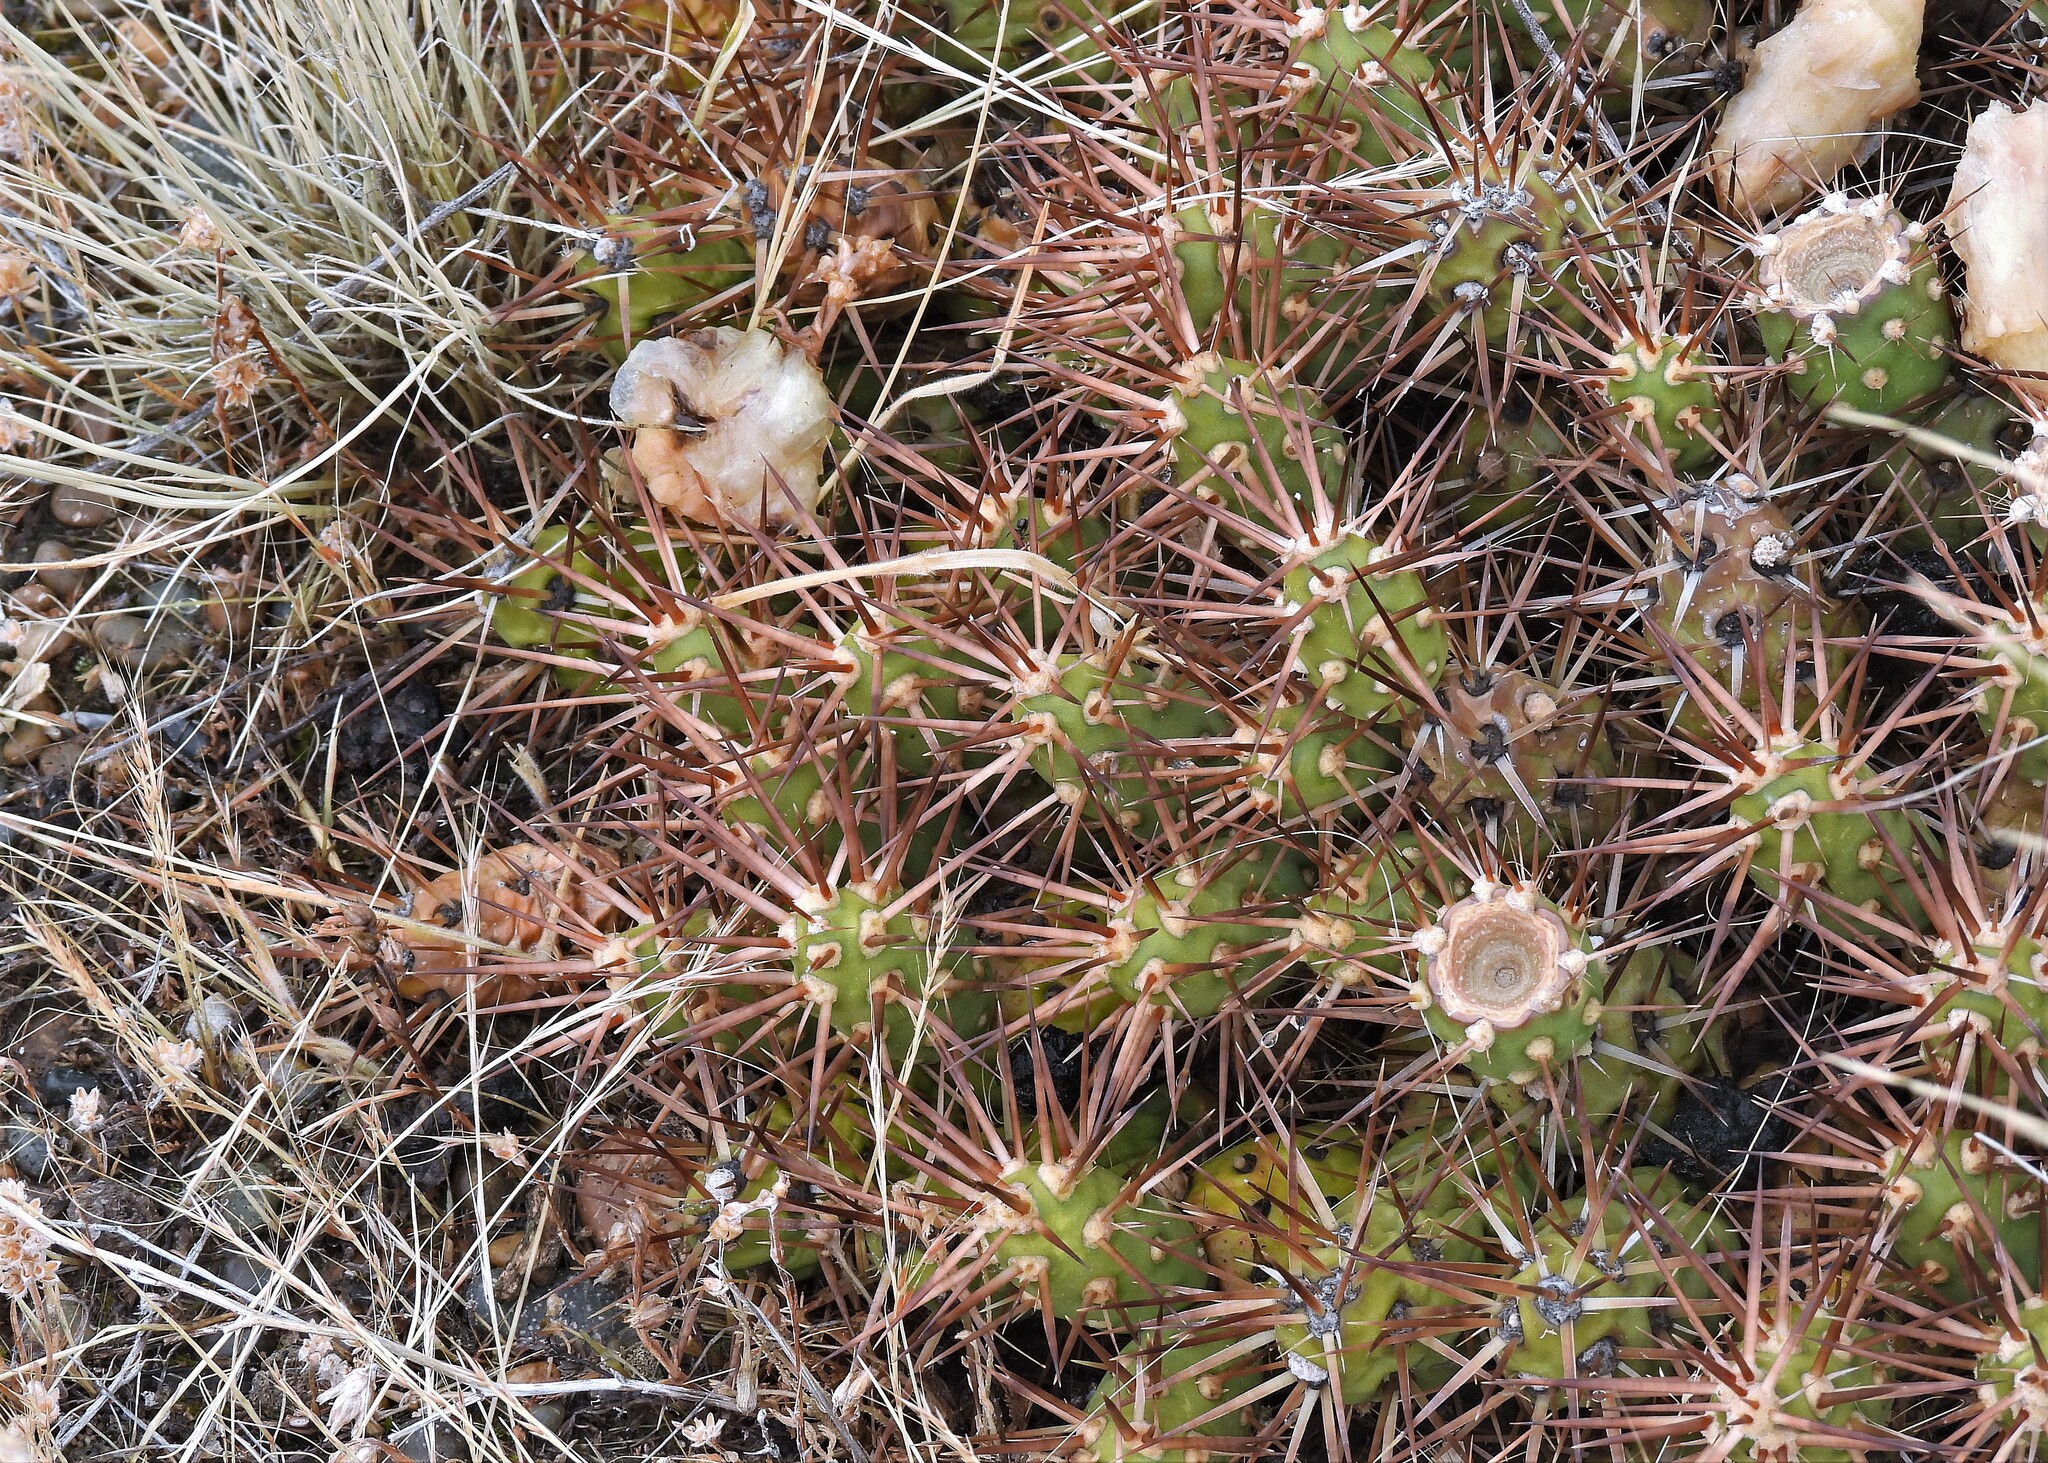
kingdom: Plantae
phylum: Tracheophyta
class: Magnoliopsida
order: Caryophyllales
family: Cactaceae
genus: Maihueniopsis
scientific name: Maihueniopsis darwinii
